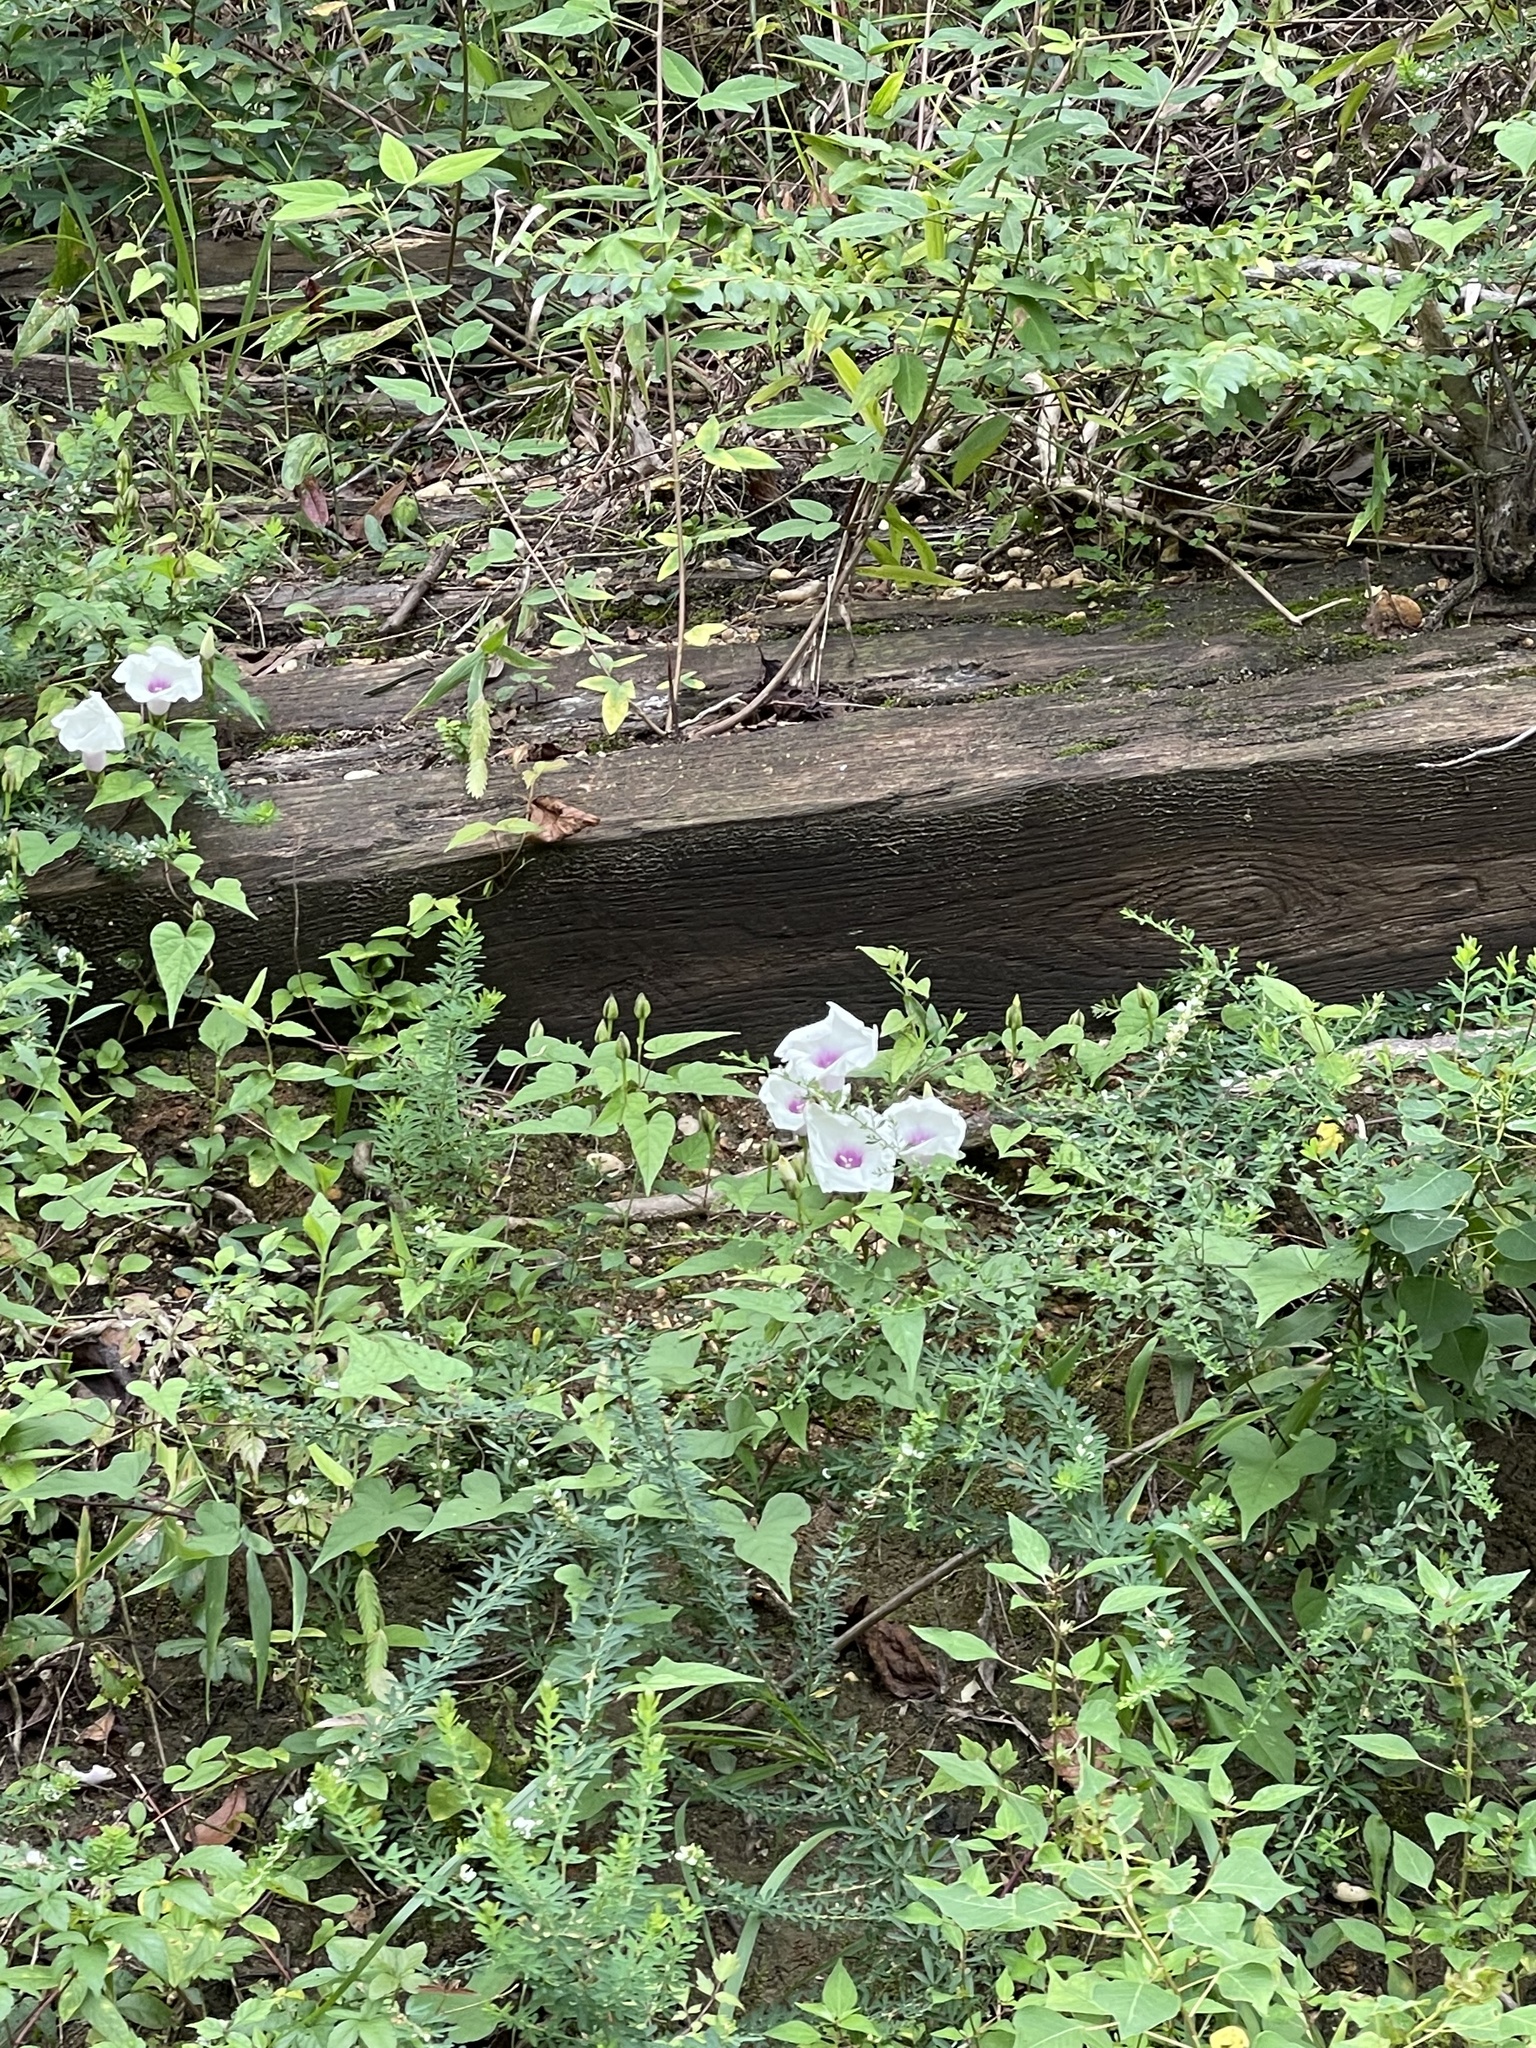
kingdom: Plantae
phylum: Tracheophyta
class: Magnoliopsida
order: Solanales
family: Convolvulaceae
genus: Ipomoea
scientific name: Ipomoea pandurata
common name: Man-of-the-earth
